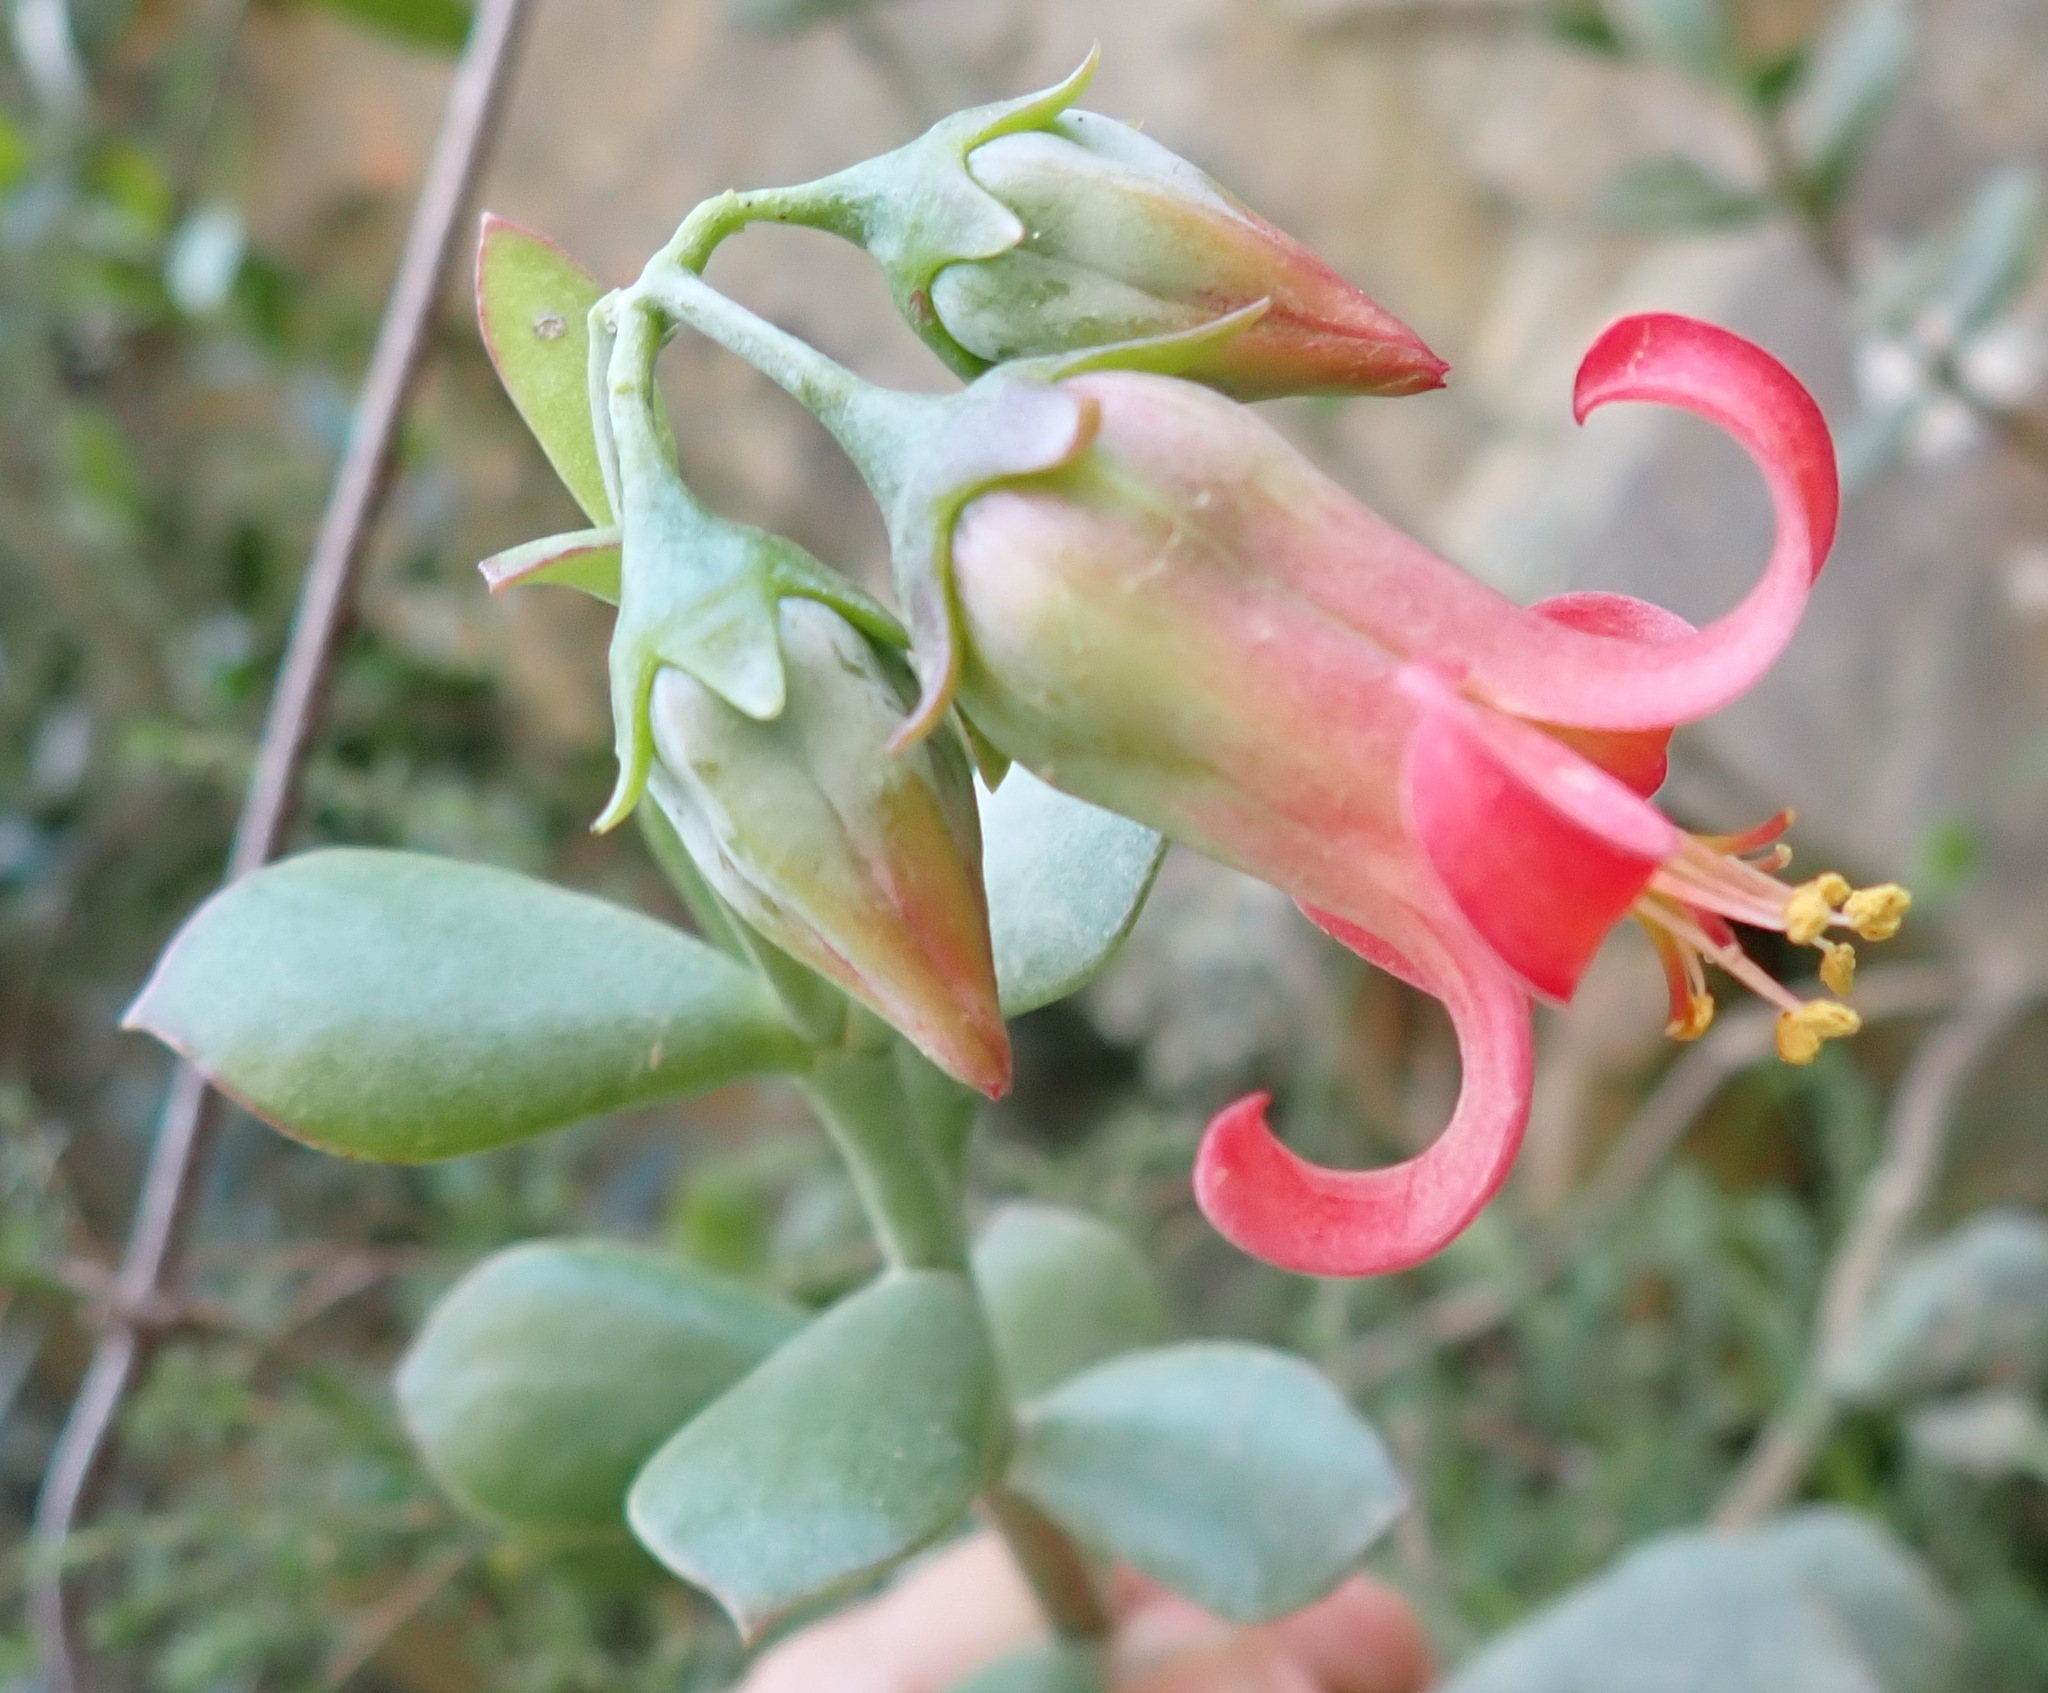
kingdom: Plantae
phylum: Tracheophyta
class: Magnoliopsida
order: Saxifragales
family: Crassulaceae
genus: Cotyledon
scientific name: Cotyledon woodii
